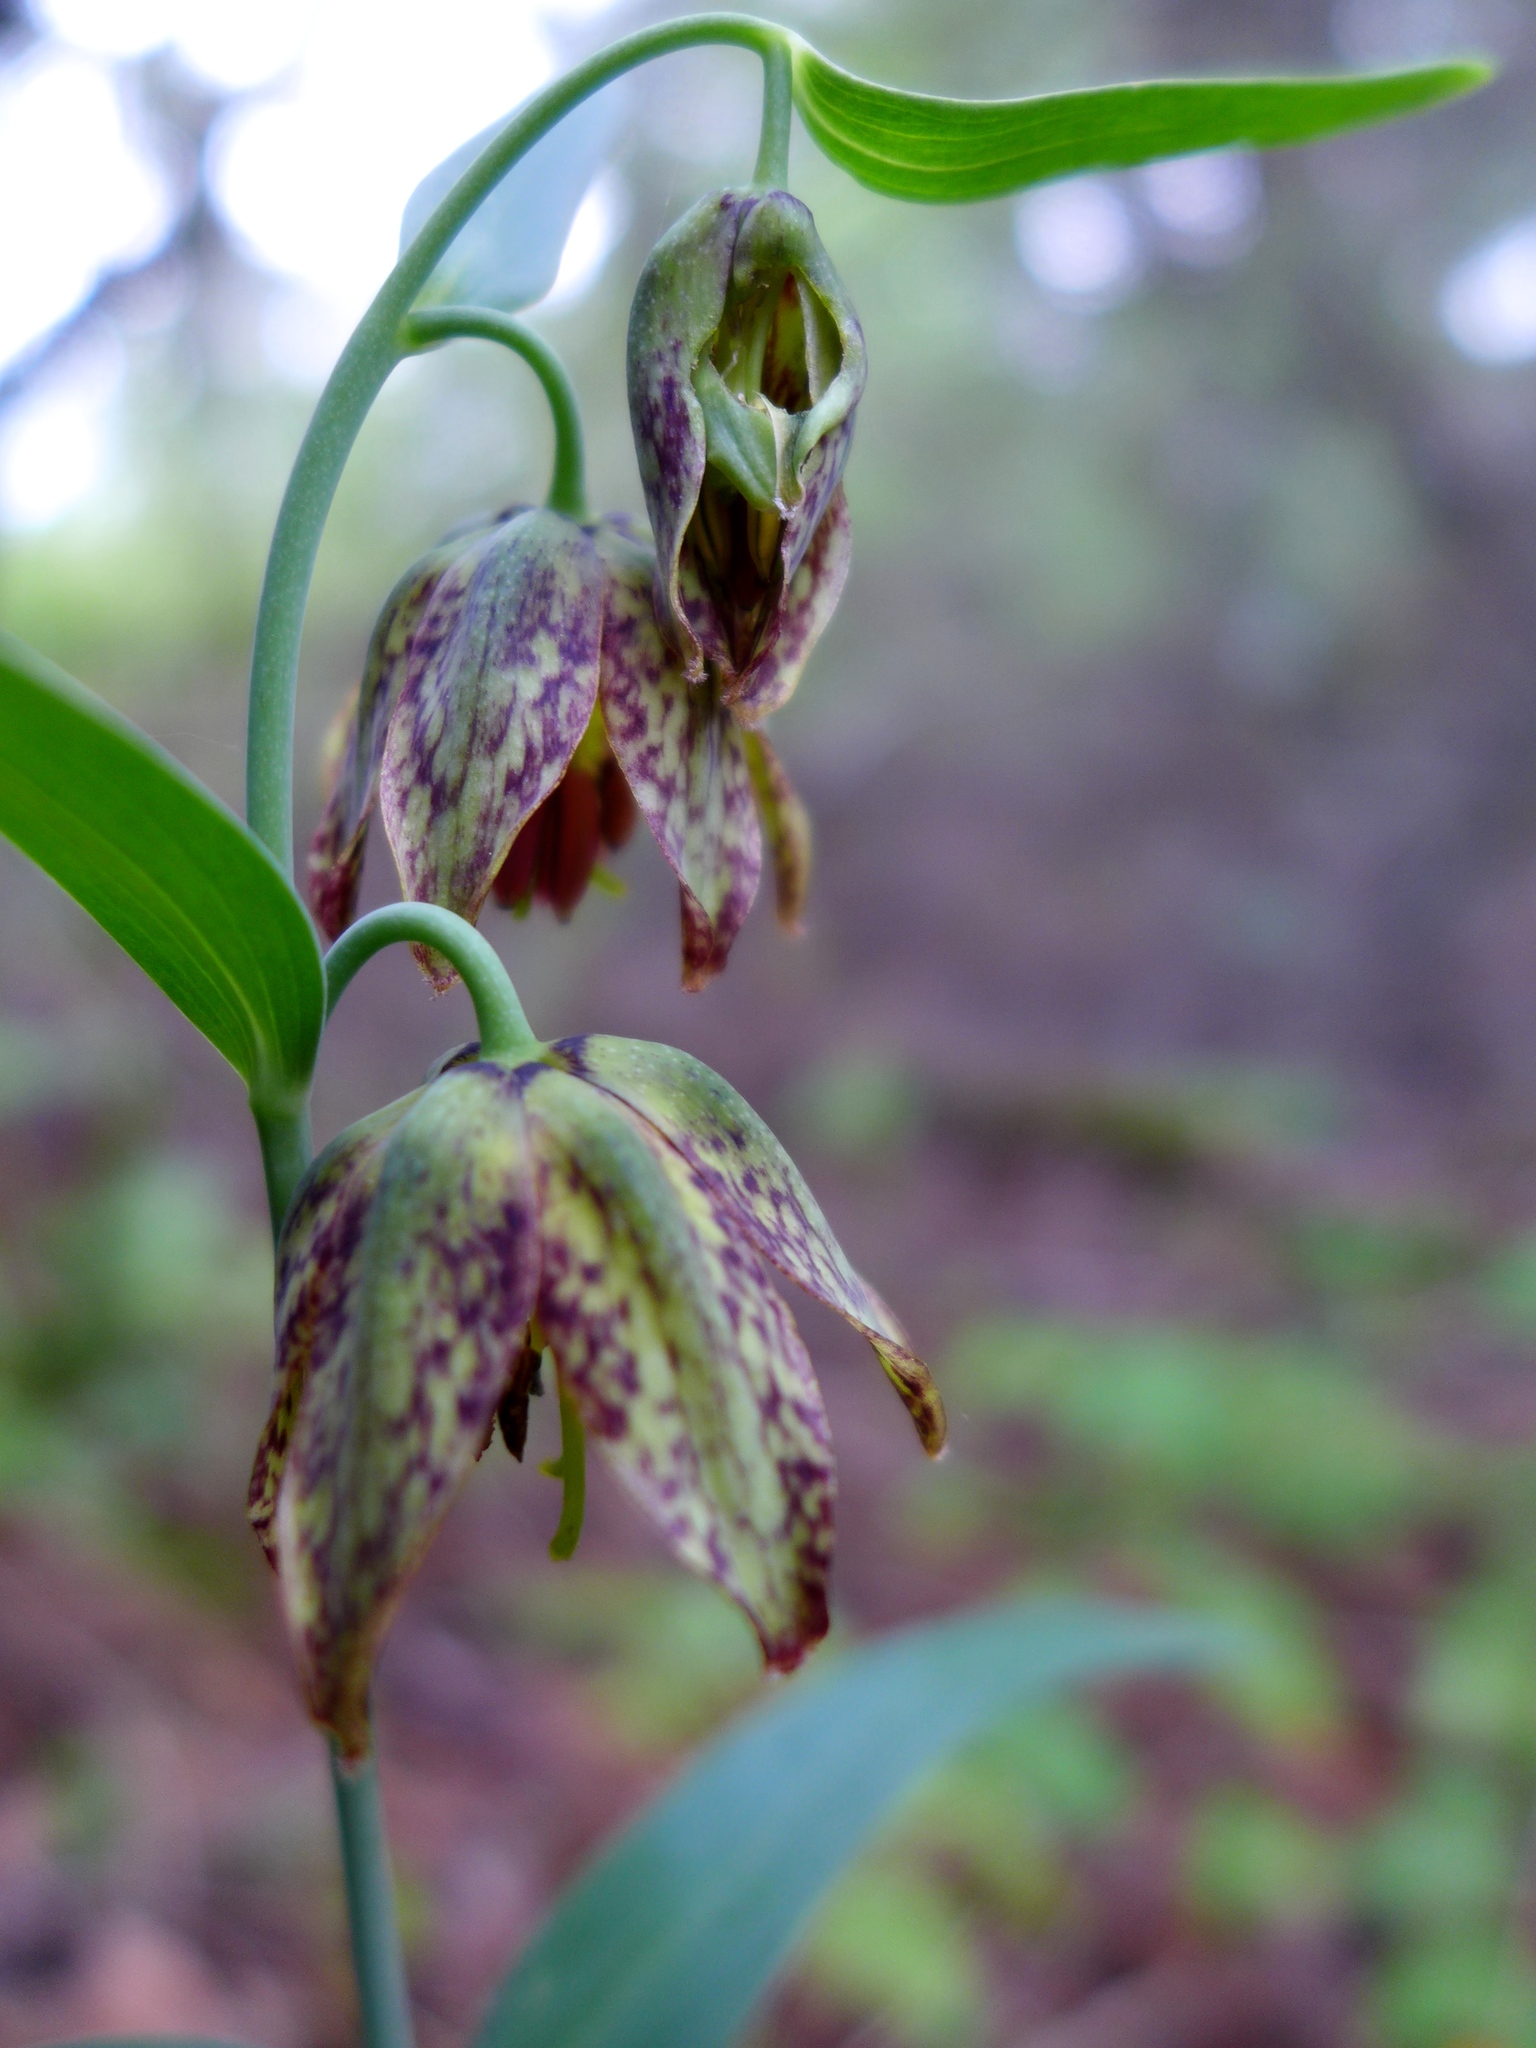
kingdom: Plantae
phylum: Tracheophyta
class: Liliopsida
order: Liliales
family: Liliaceae
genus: Fritillaria
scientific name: Fritillaria affinis
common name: Ojai fritillary
